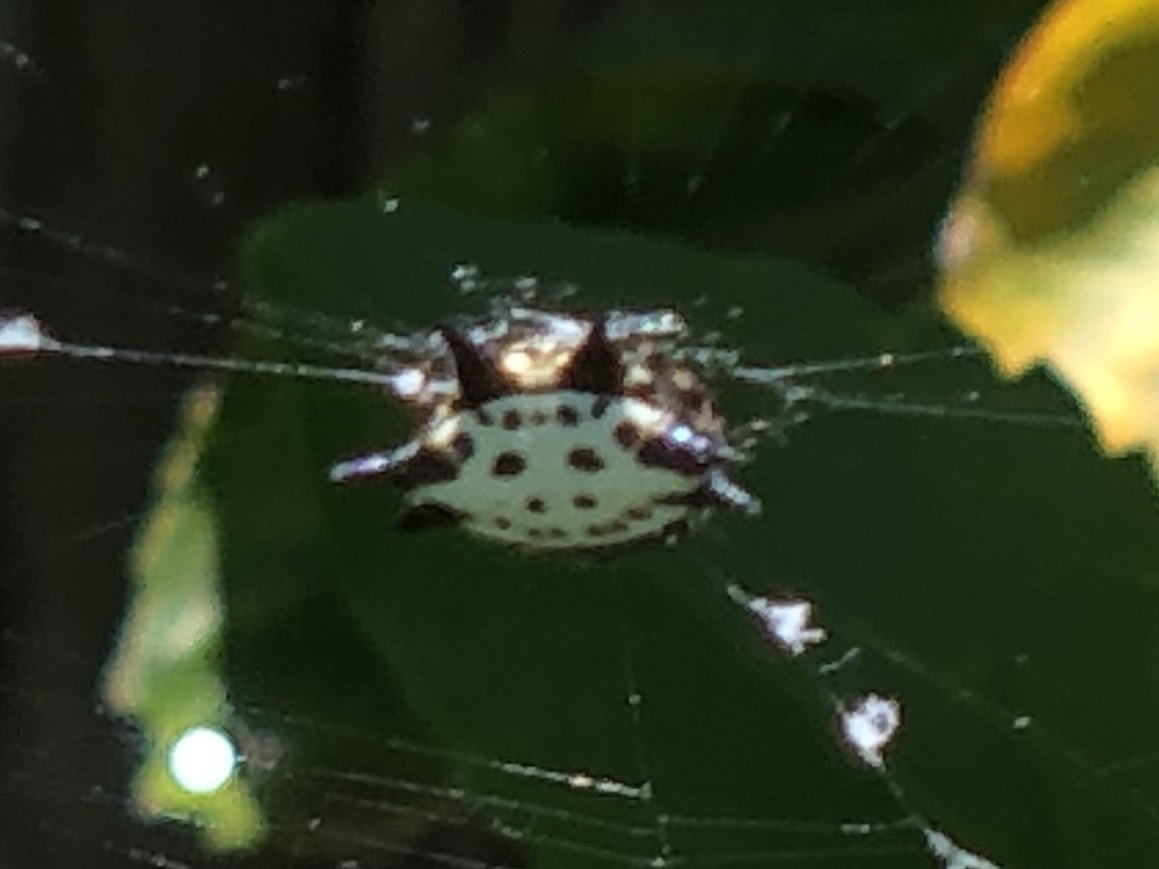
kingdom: Animalia
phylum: Arthropoda
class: Arachnida
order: Araneae
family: Araneidae
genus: Gasteracantha
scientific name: Gasteracantha cancriformis
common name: Orb weavers
